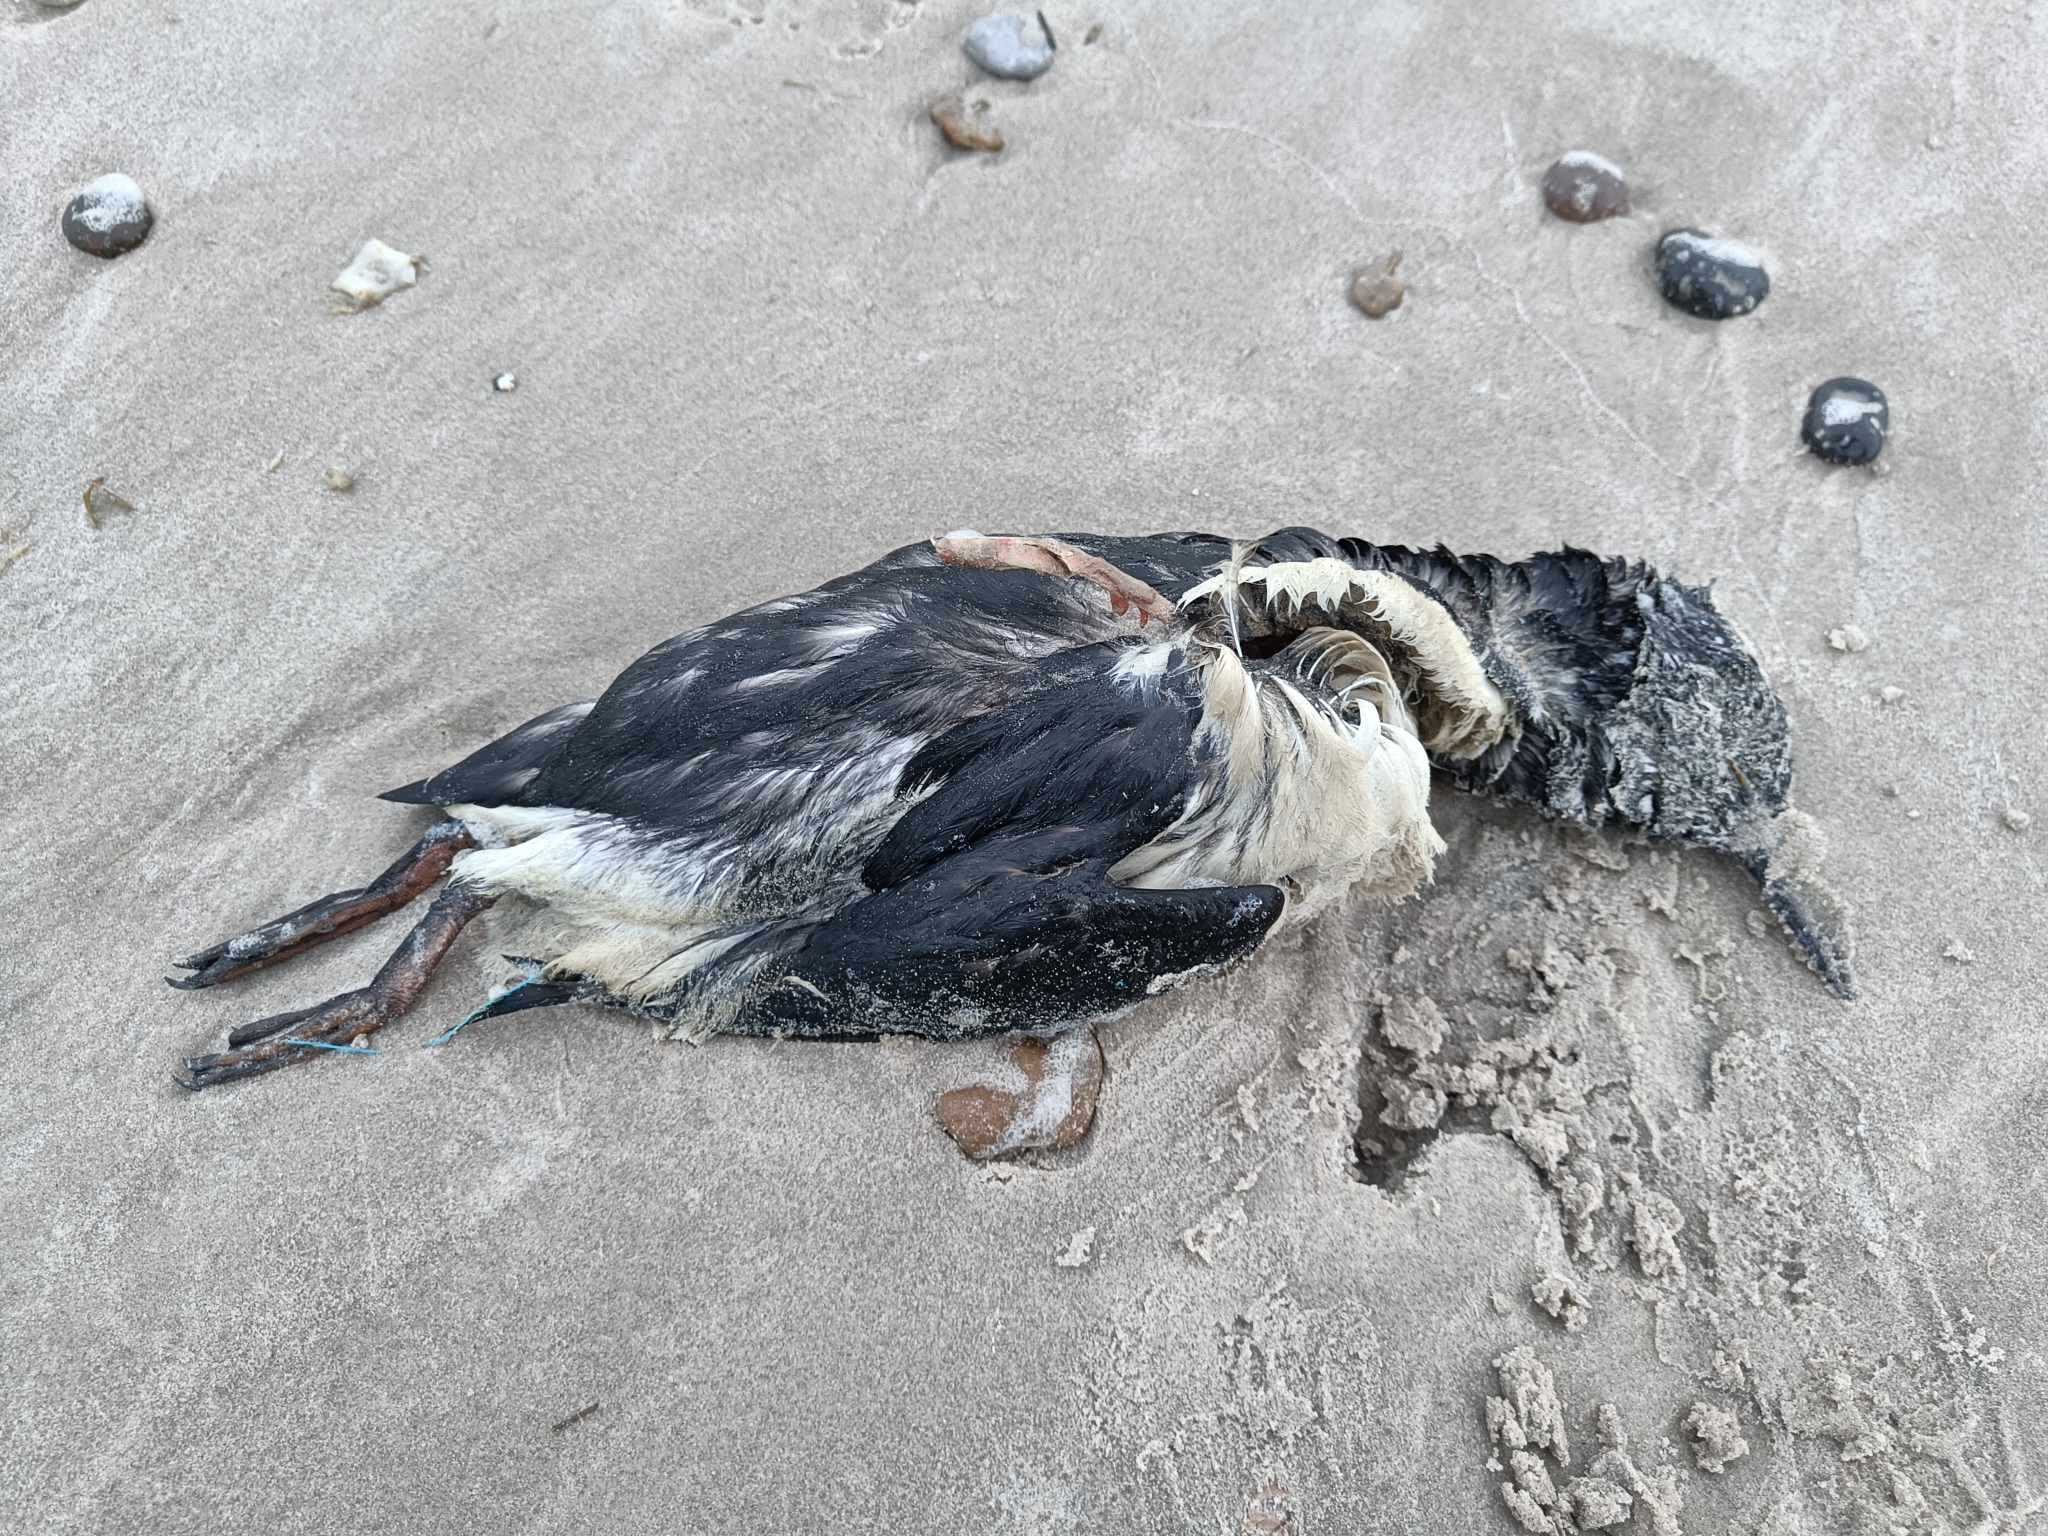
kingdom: Animalia
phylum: Chordata
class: Aves
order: Charadriiformes
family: Alcidae
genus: Uria
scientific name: Uria aalge
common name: Common murre
